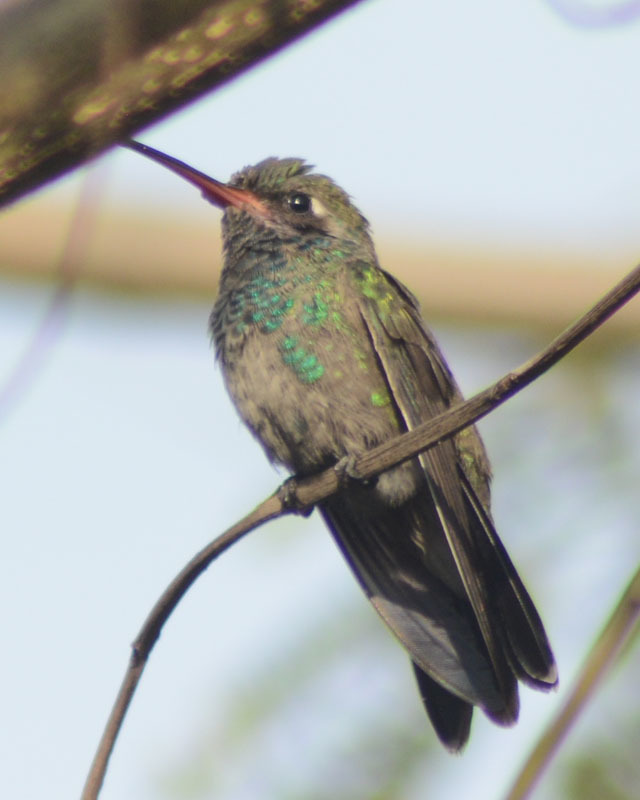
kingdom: Animalia
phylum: Chordata
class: Aves
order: Apodiformes
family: Trochilidae
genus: Cynanthus
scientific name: Cynanthus latirostris
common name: Broad-billed hummingbird
